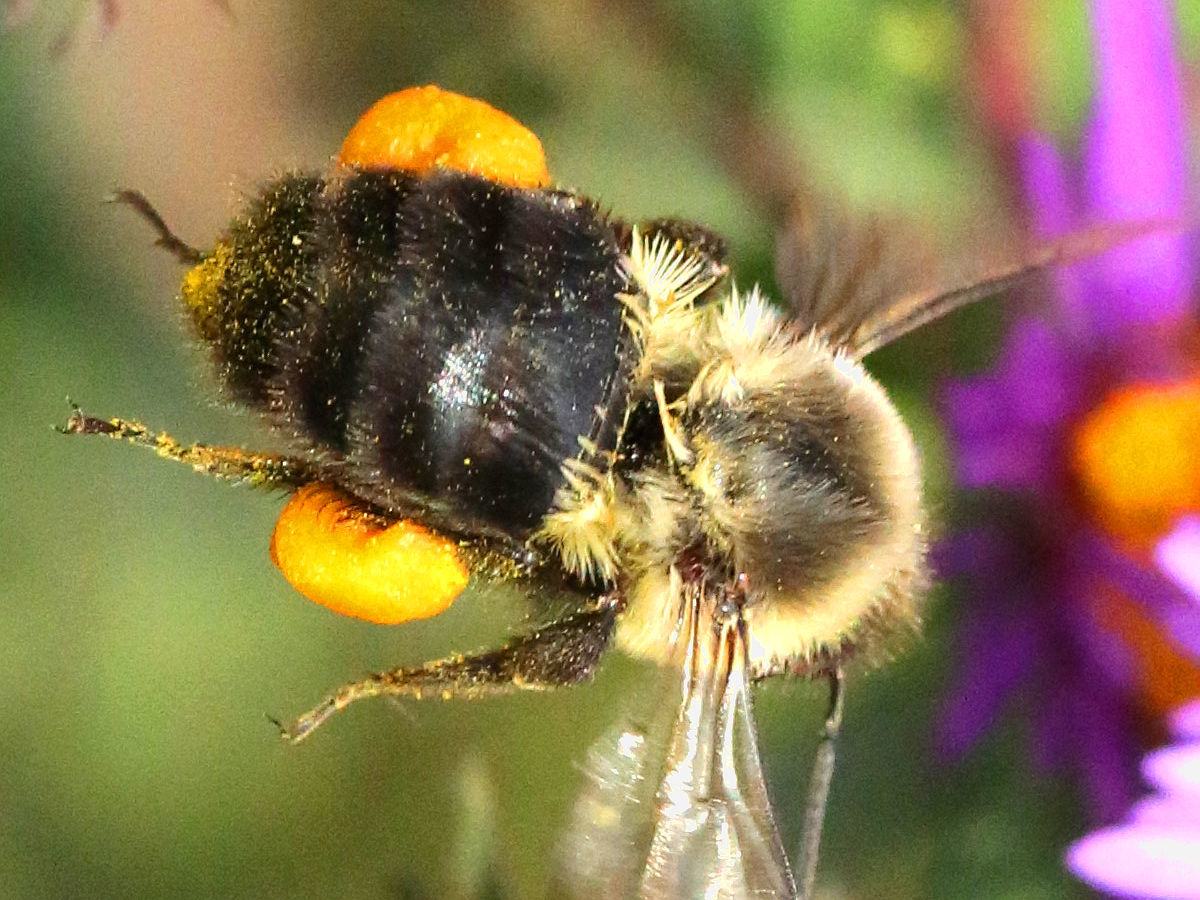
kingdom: Animalia
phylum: Arthropoda
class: Insecta
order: Hymenoptera
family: Apidae
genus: Bombus
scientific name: Bombus impatiens
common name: Common eastern bumble bee
